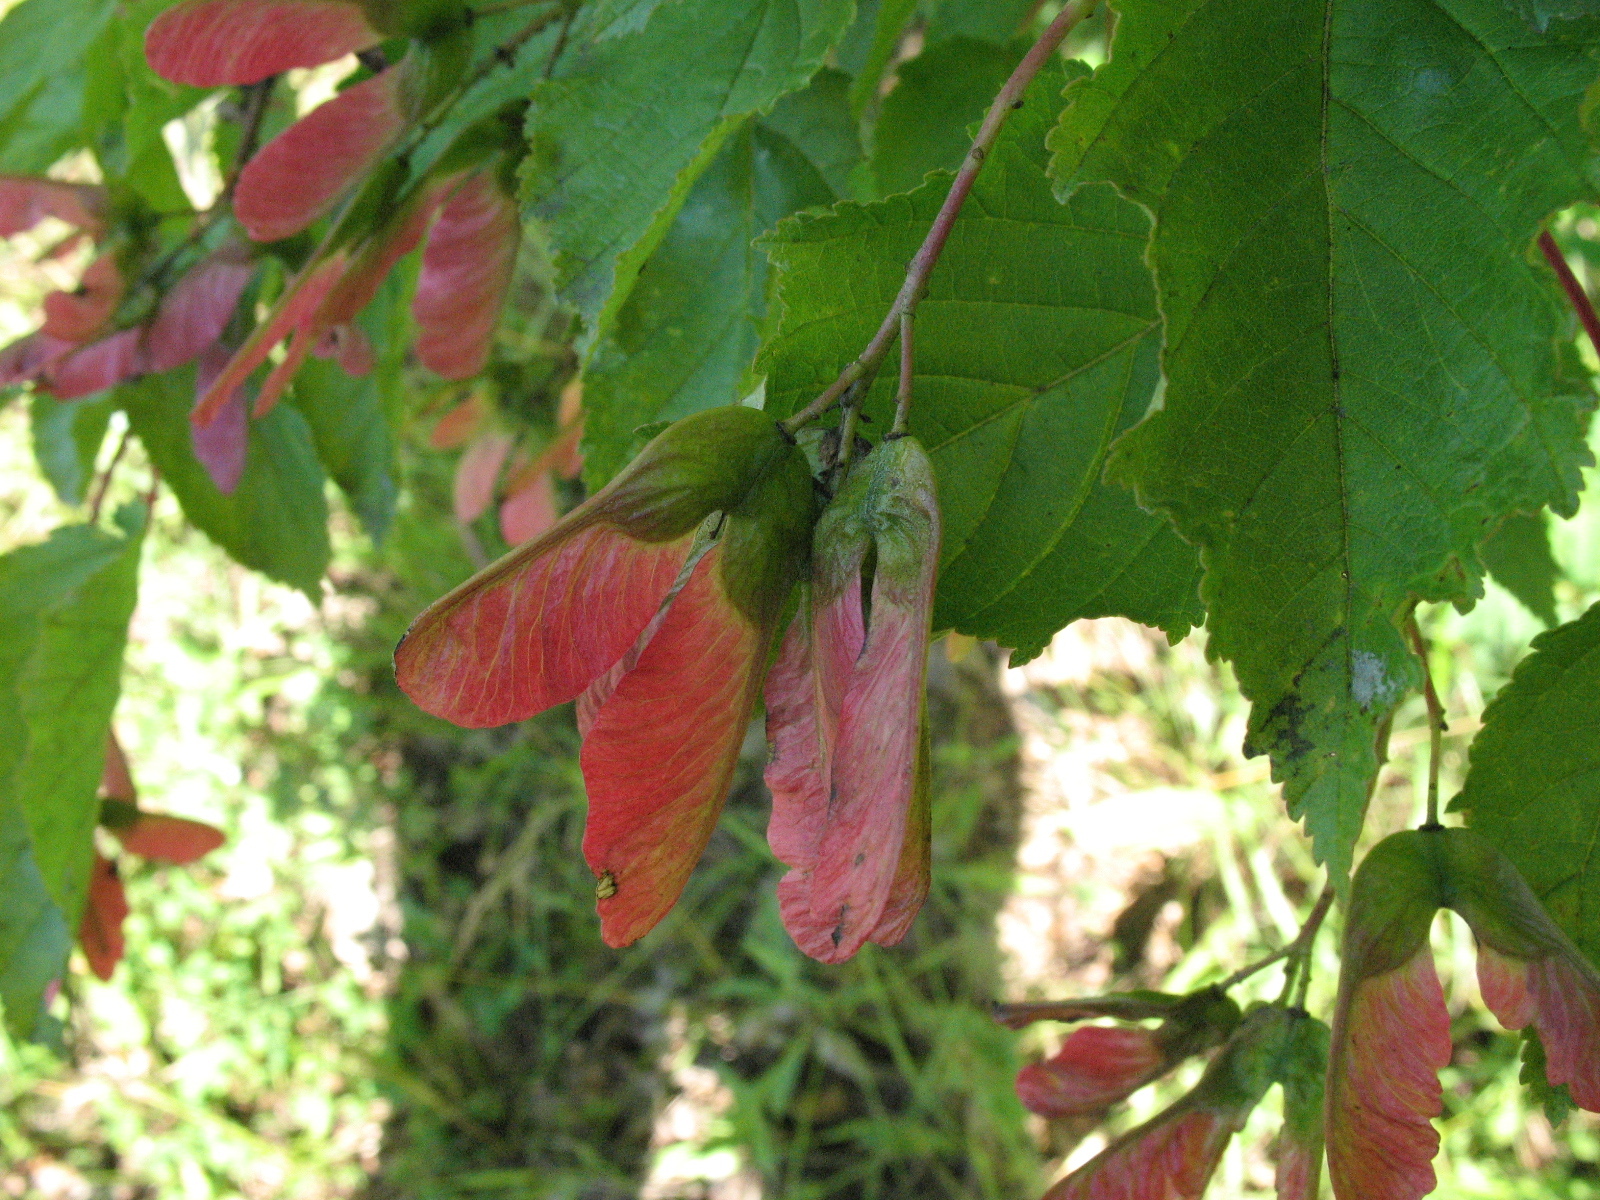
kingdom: Plantae
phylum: Tracheophyta
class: Magnoliopsida
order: Sapindales
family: Sapindaceae
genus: Acer
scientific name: Acer tataricum
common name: Tartar maple
